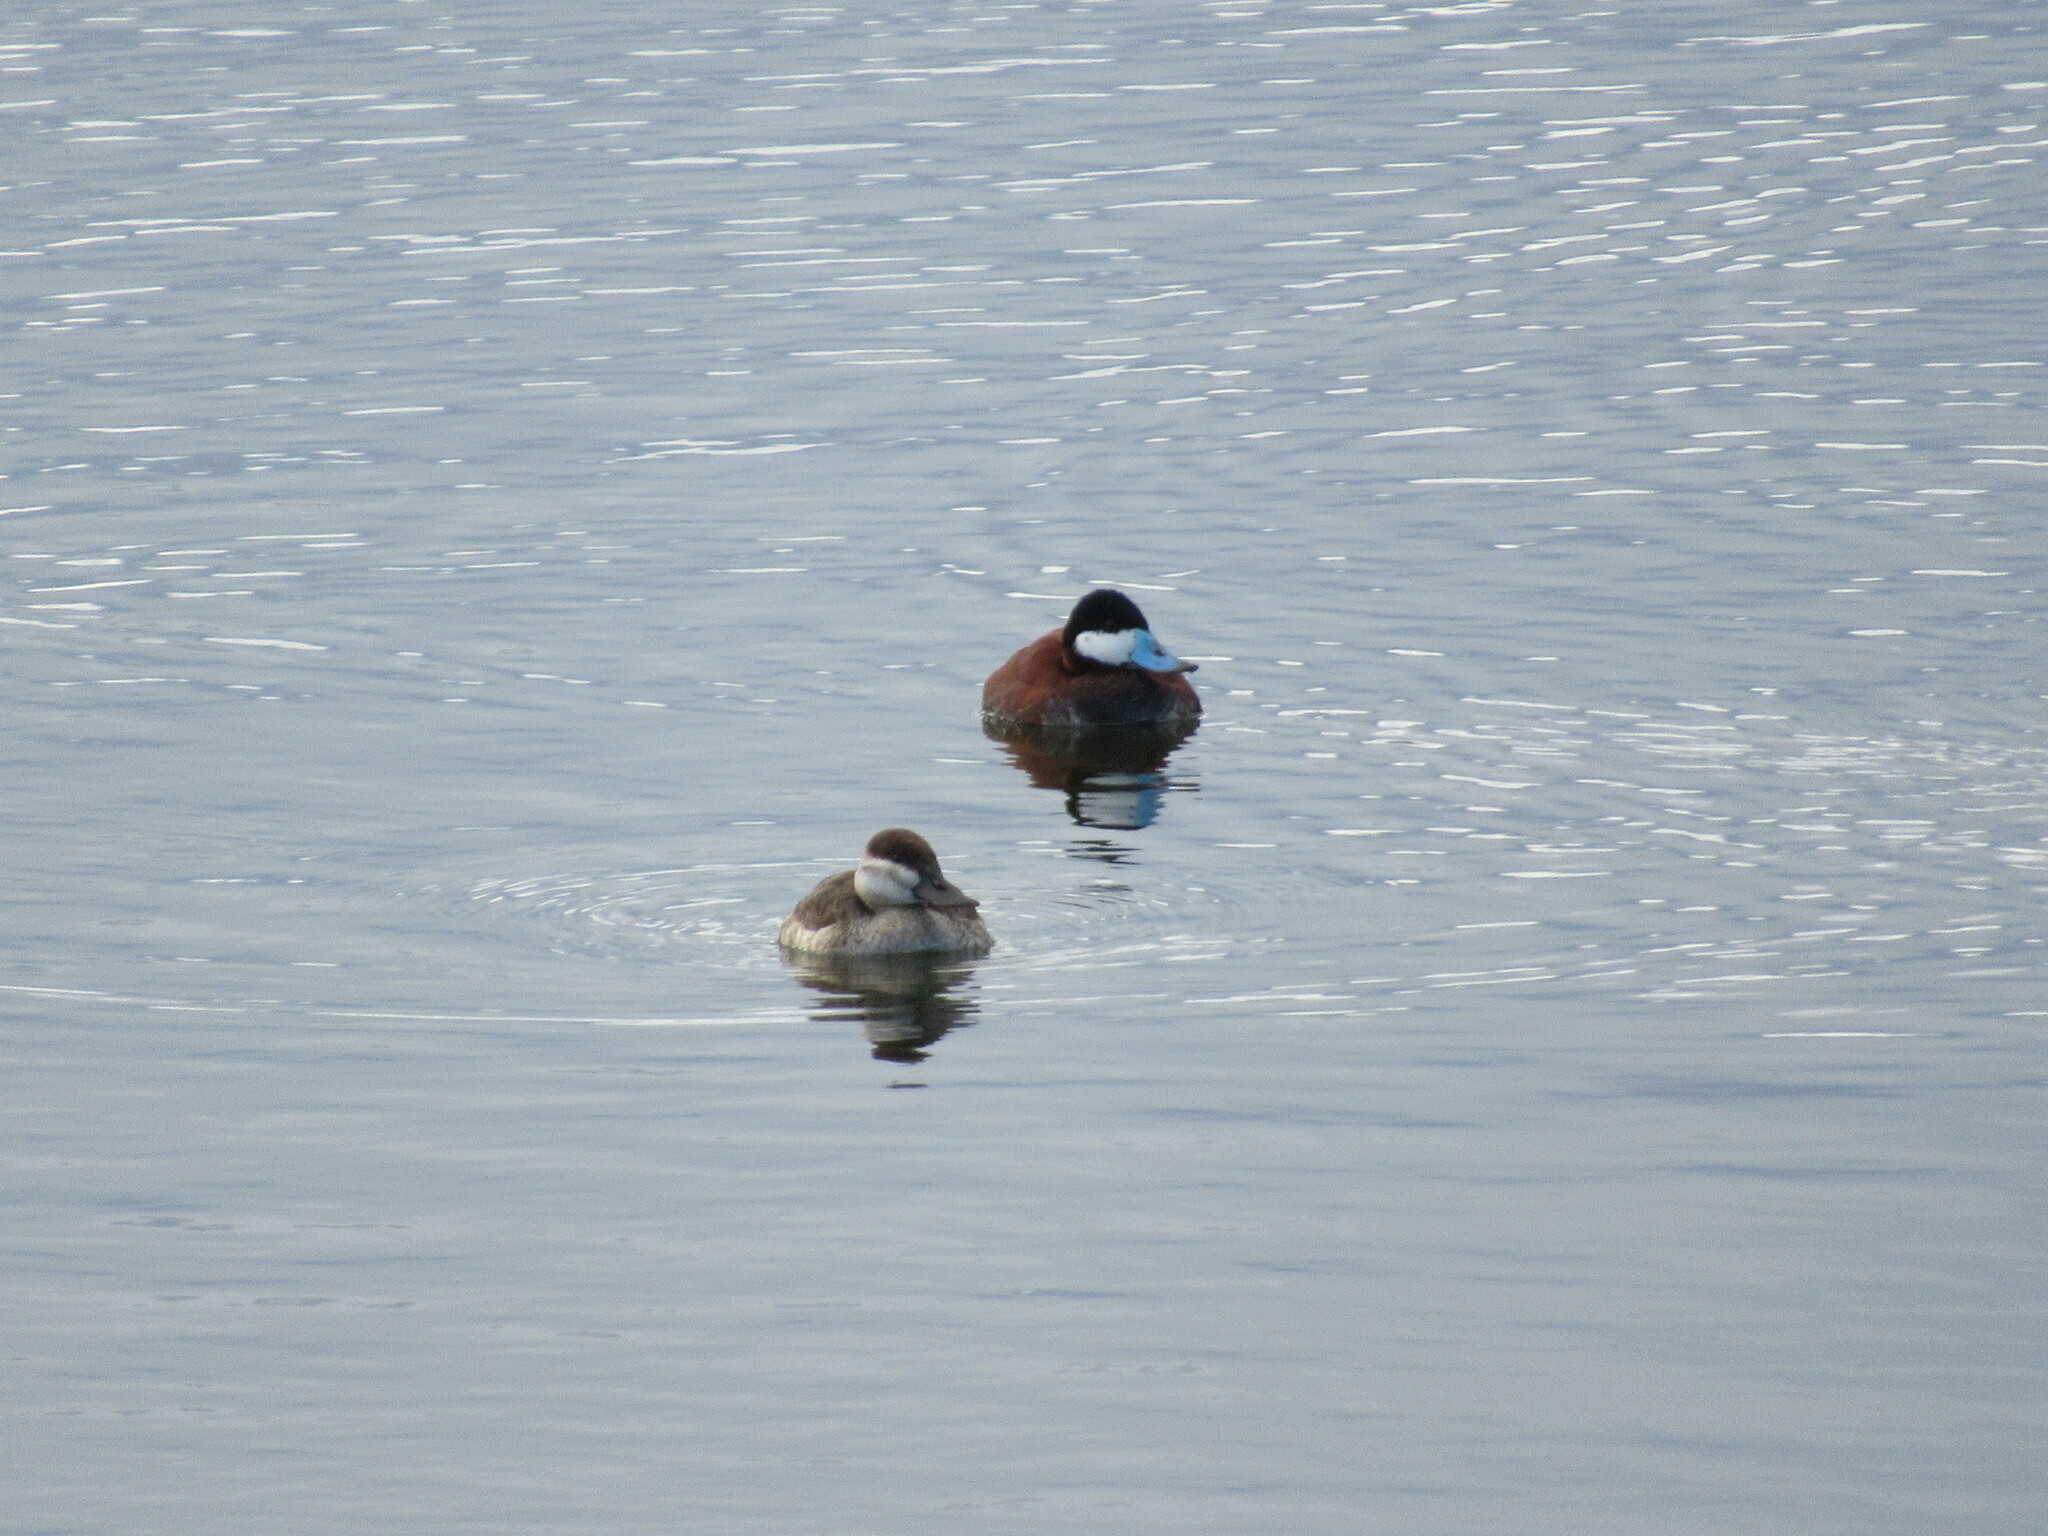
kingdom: Animalia
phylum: Chordata
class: Aves
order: Anseriformes
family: Anatidae
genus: Oxyura
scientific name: Oxyura jamaicensis
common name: Ruddy duck
